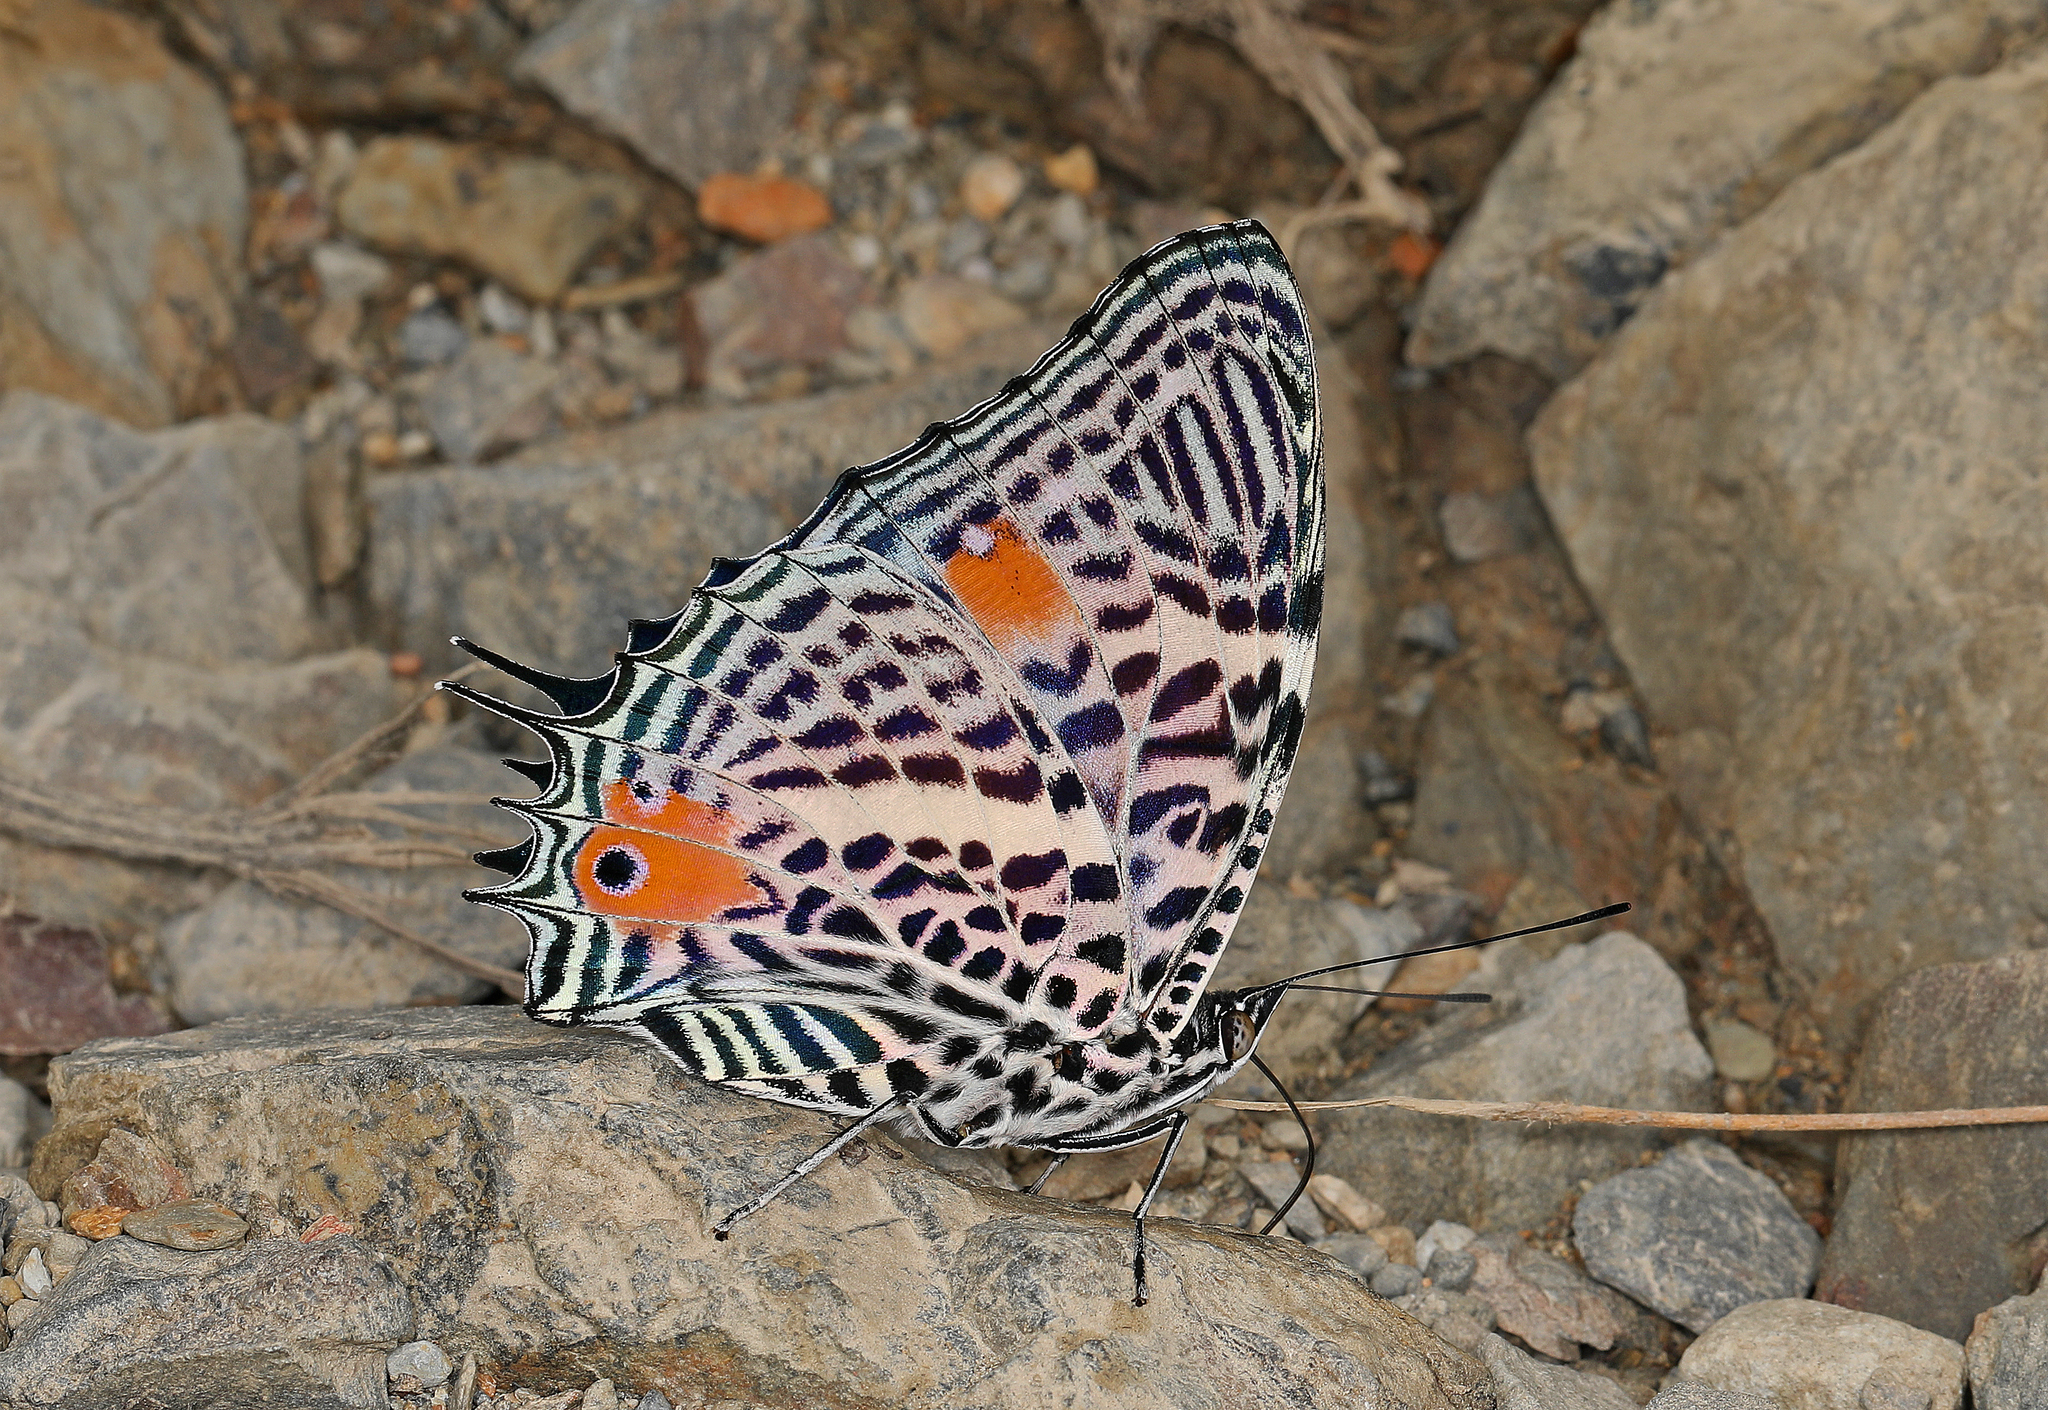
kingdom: Animalia
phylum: Arthropoda
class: Insecta
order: Lepidoptera
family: Nymphalidae
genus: Baeotus
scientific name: Baeotus beotus
